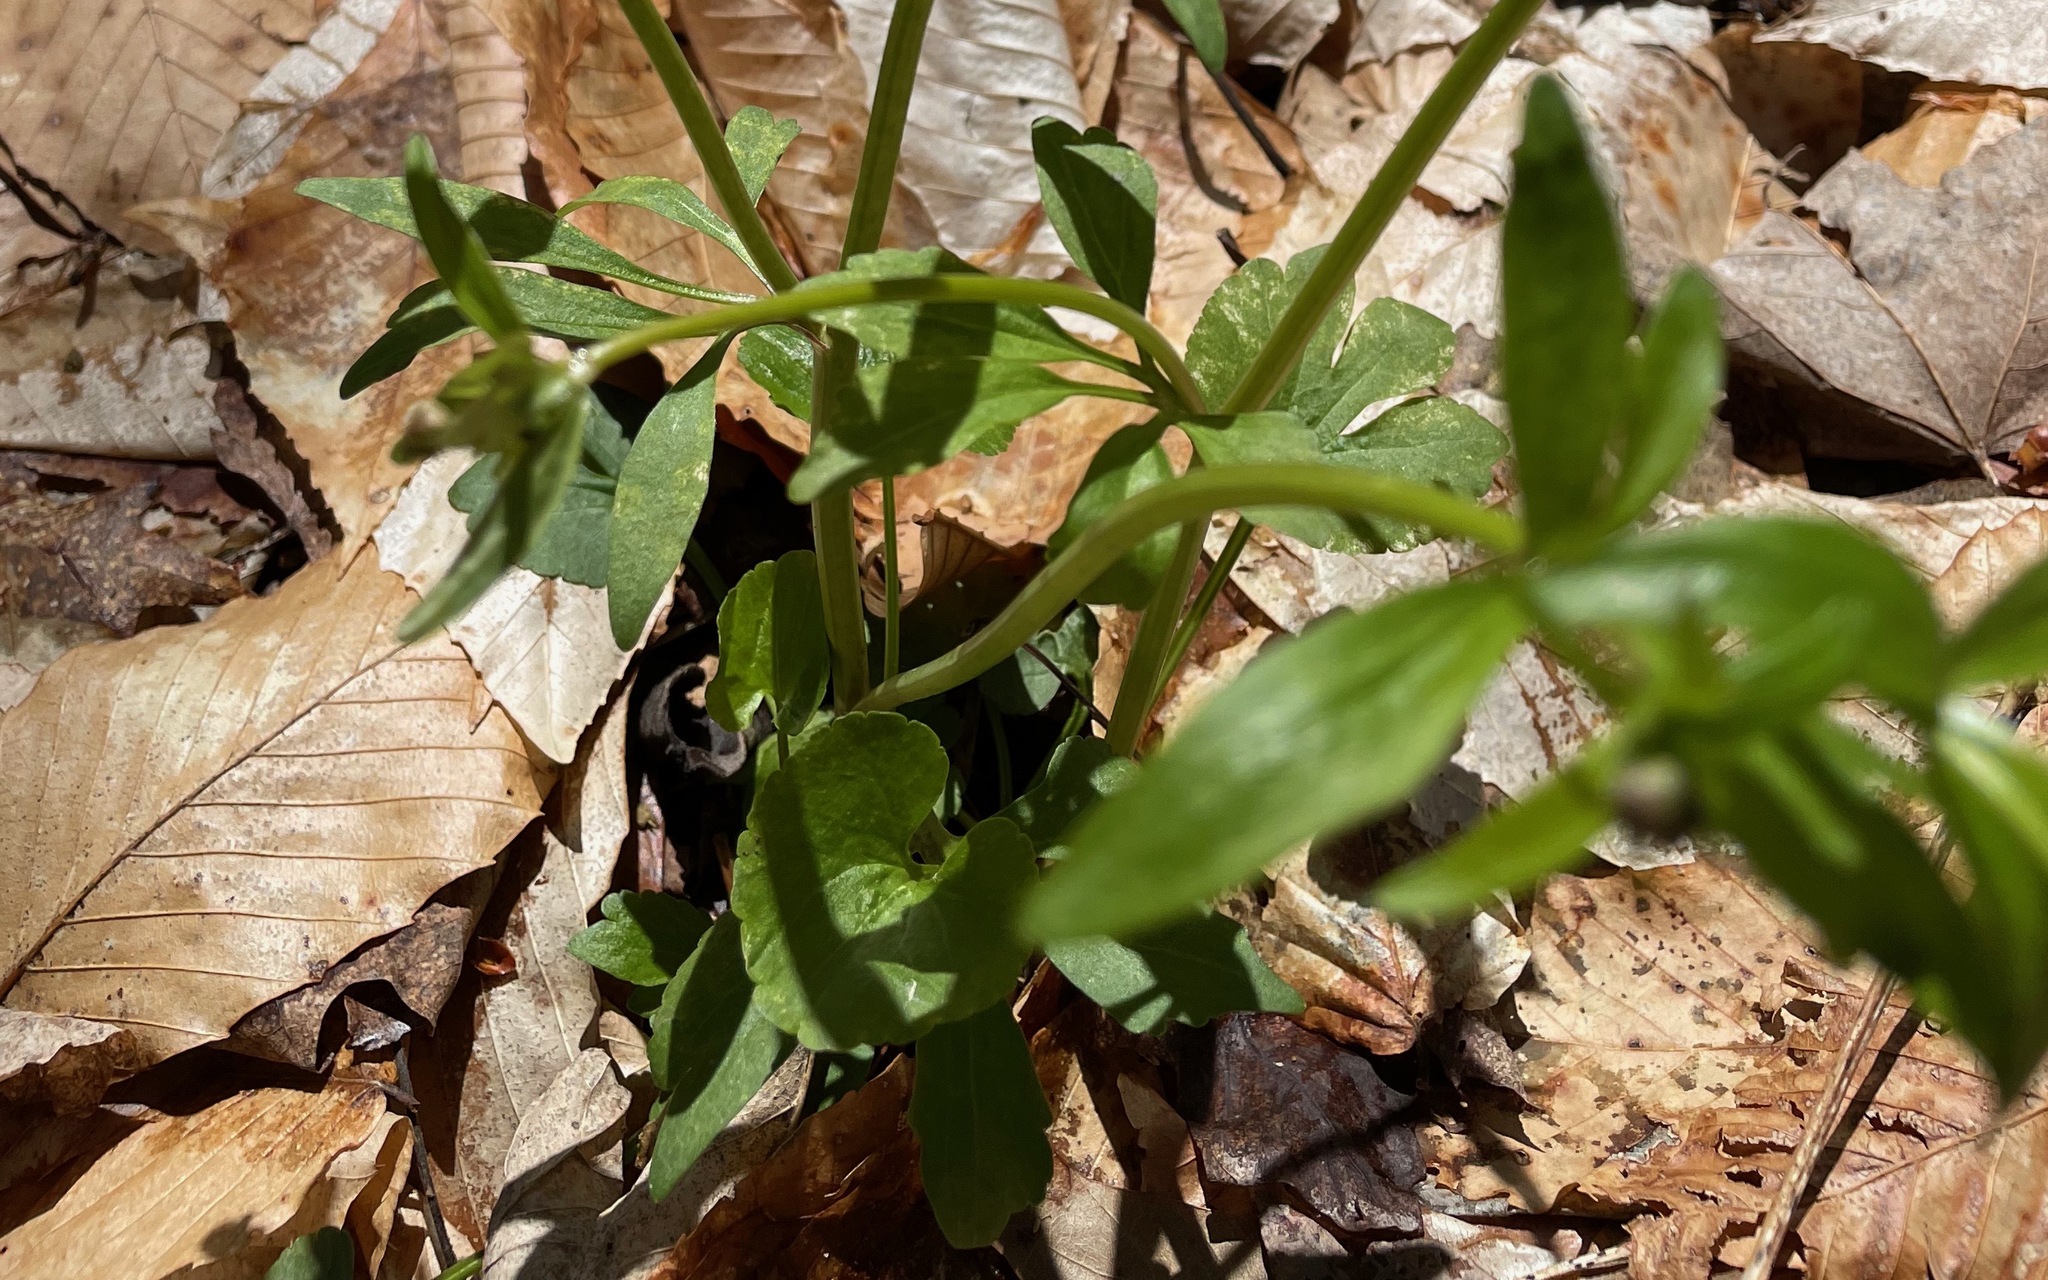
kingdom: Plantae
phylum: Tracheophyta
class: Magnoliopsida
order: Ranunculales
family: Ranunculaceae
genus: Ranunculus
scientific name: Ranunculus abortivus
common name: Early wood buttercup
